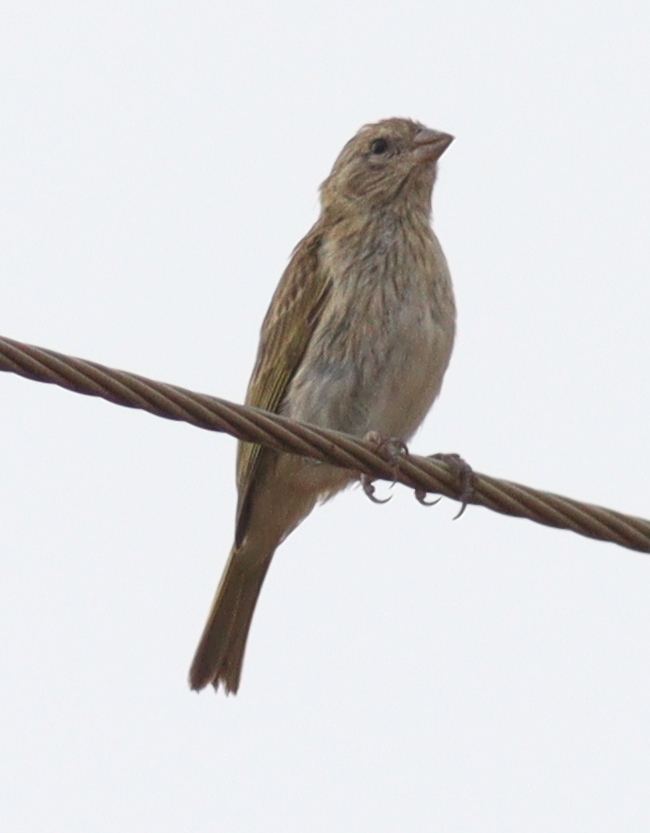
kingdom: Animalia
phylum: Chordata
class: Aves
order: Passeriformes
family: Thraupidae
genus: Sicalis
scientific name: Sicalis flaveola
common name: Saffron finch
